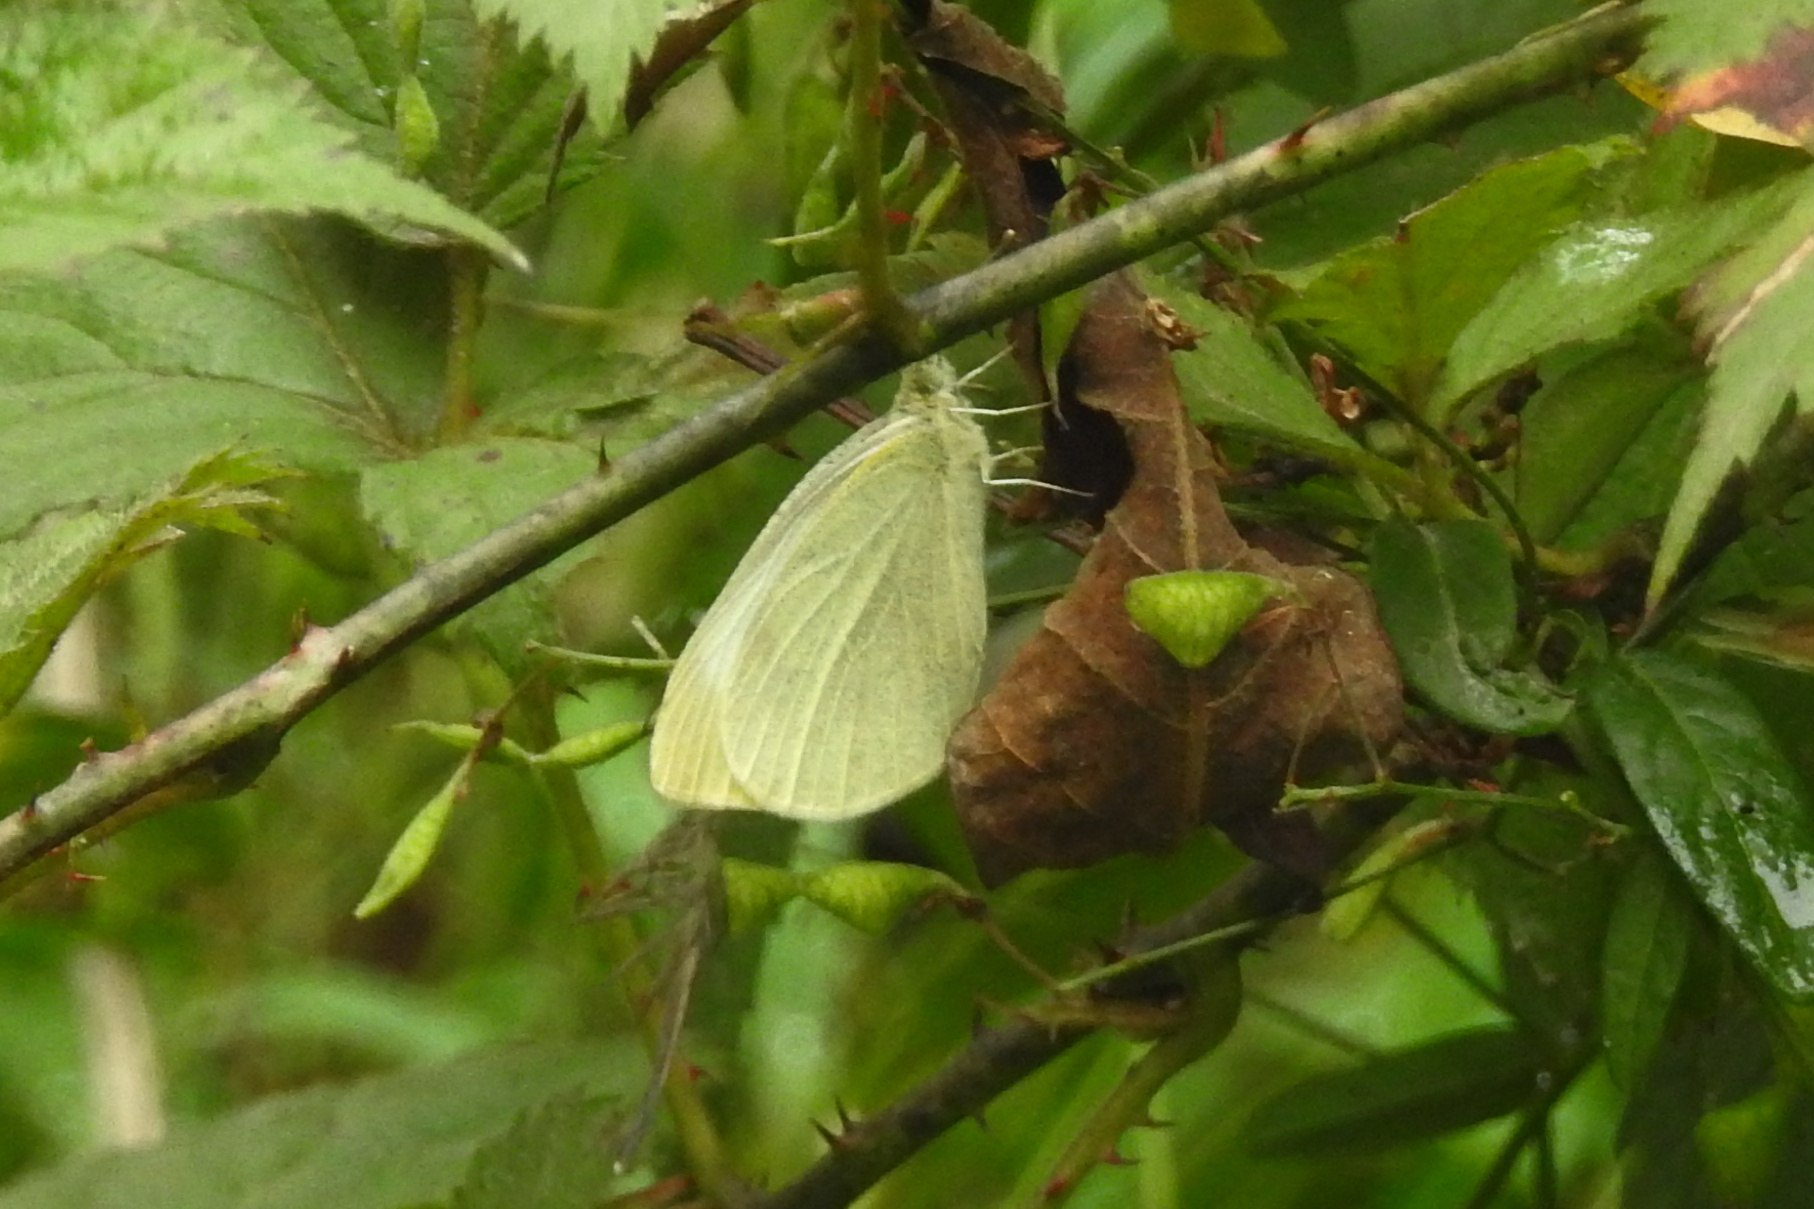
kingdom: Animalia
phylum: Arthropoda
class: Insecta
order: Lepidoptera
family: Pieridae
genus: Pieris
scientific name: Pieris rapae
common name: Small white
